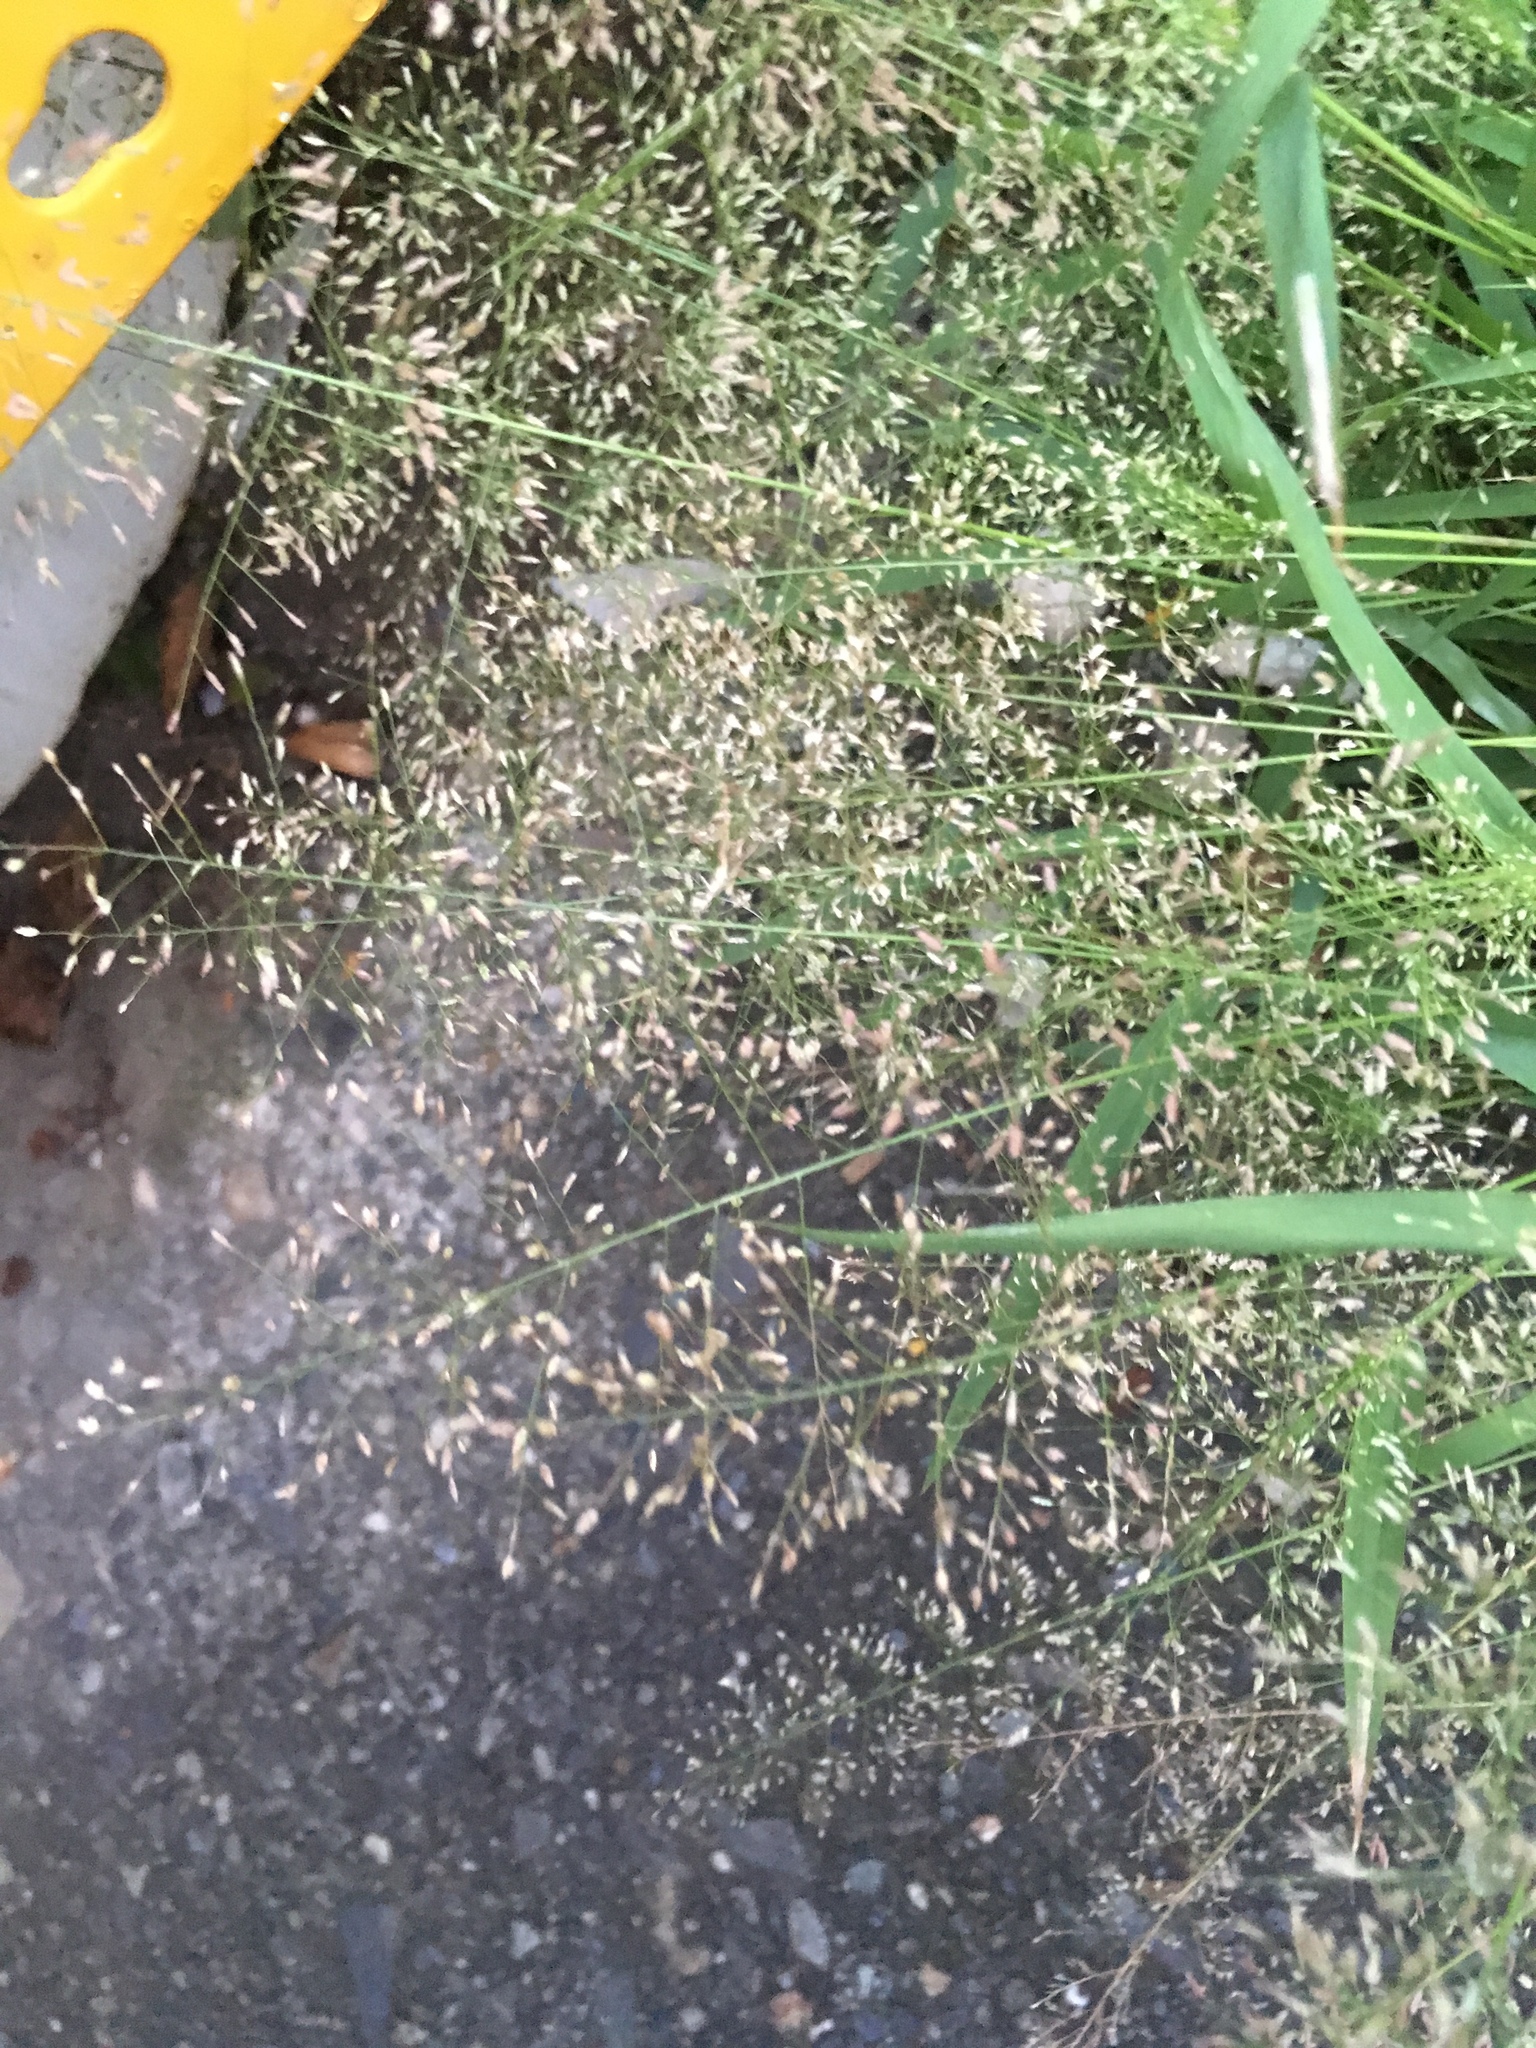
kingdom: Plantae
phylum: Tracheophyta
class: Liliopsida
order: Poales
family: Poaceae
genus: Eragrostis
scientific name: Eragrostis tenella
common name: Japanese lovegrass
